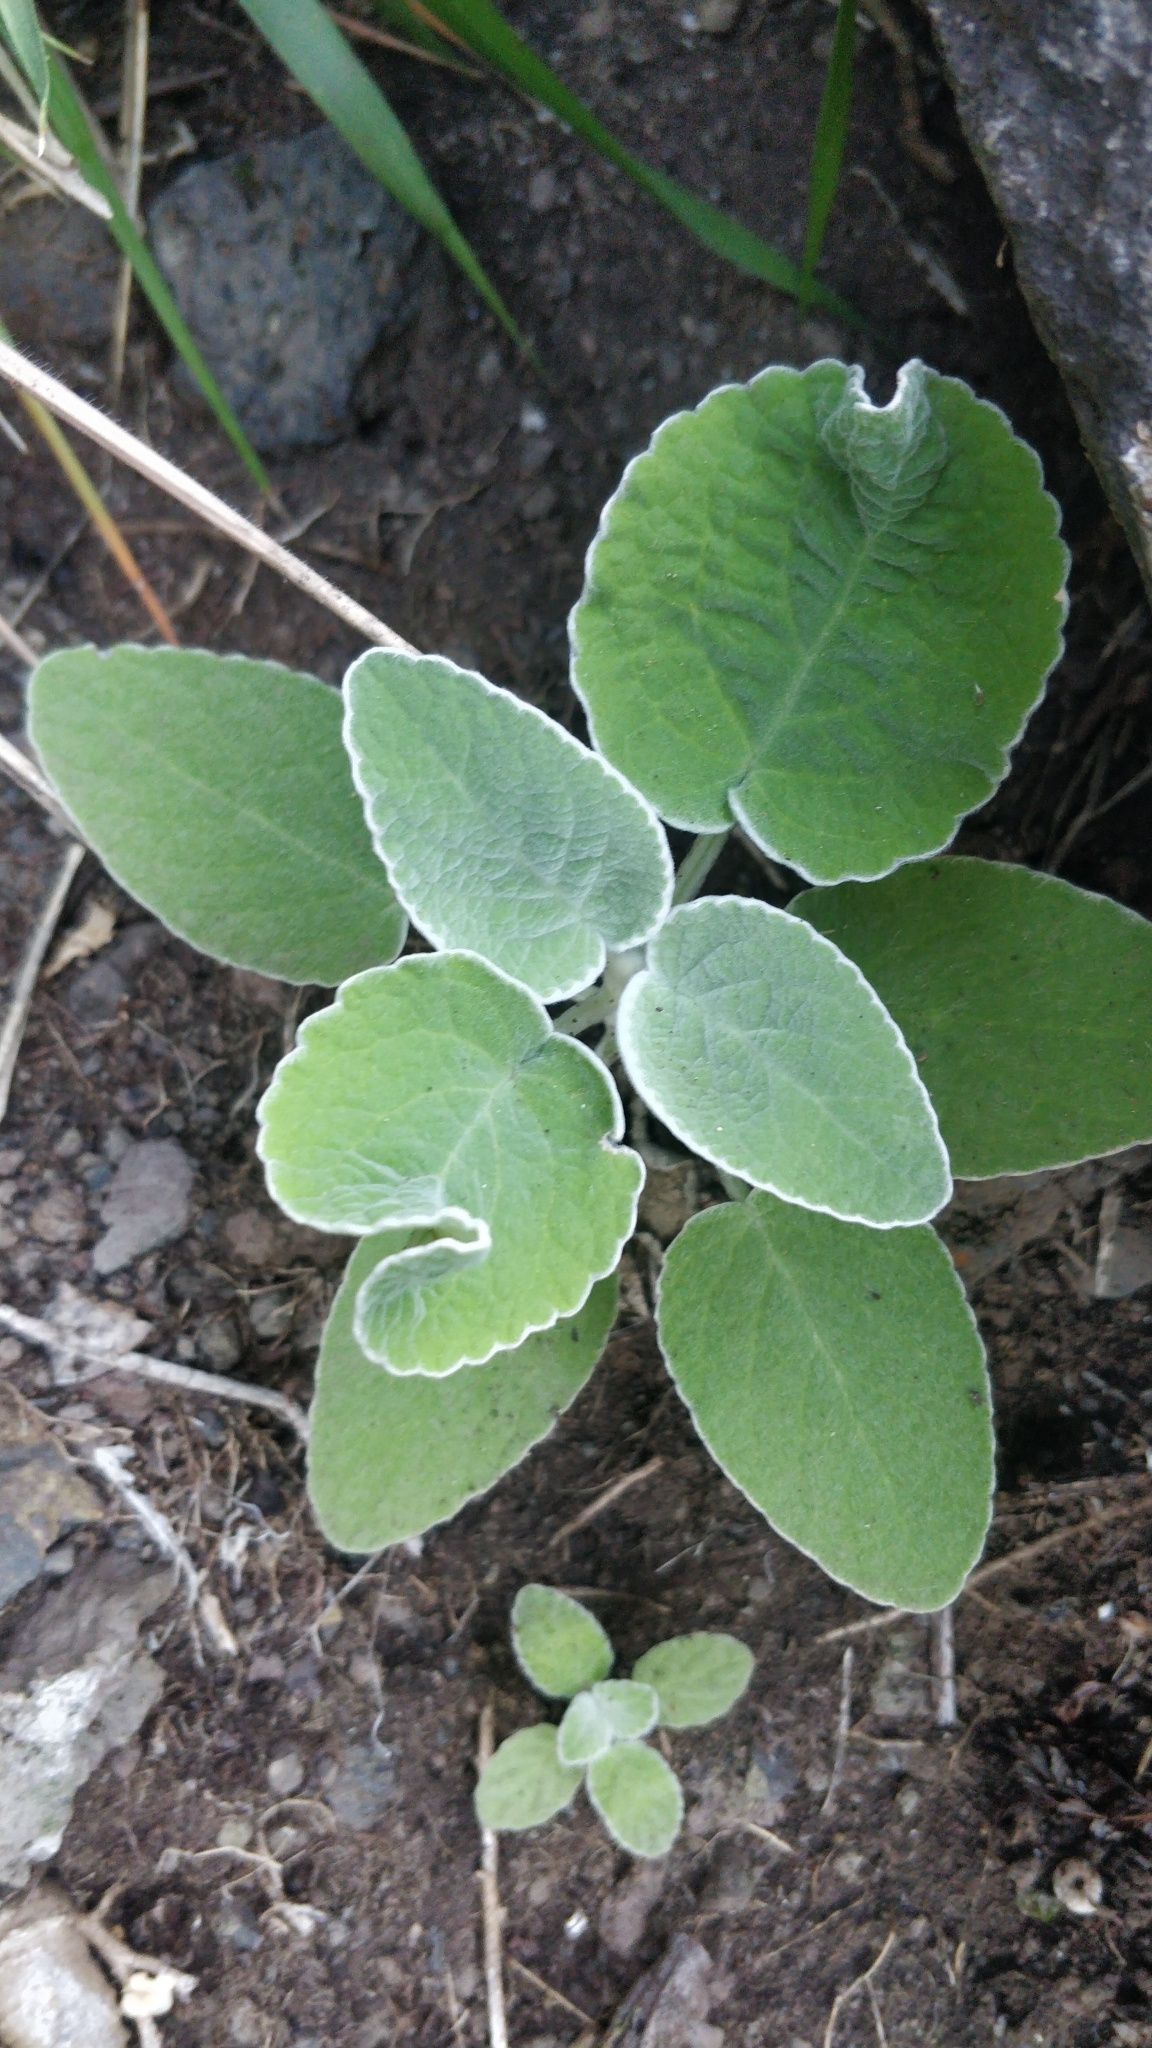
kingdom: Plantae
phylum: Tracheophyta
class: Magnoliopsida
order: Lamiales
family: Lamiaceae
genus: Sideritis
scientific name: Sideritis cretica
